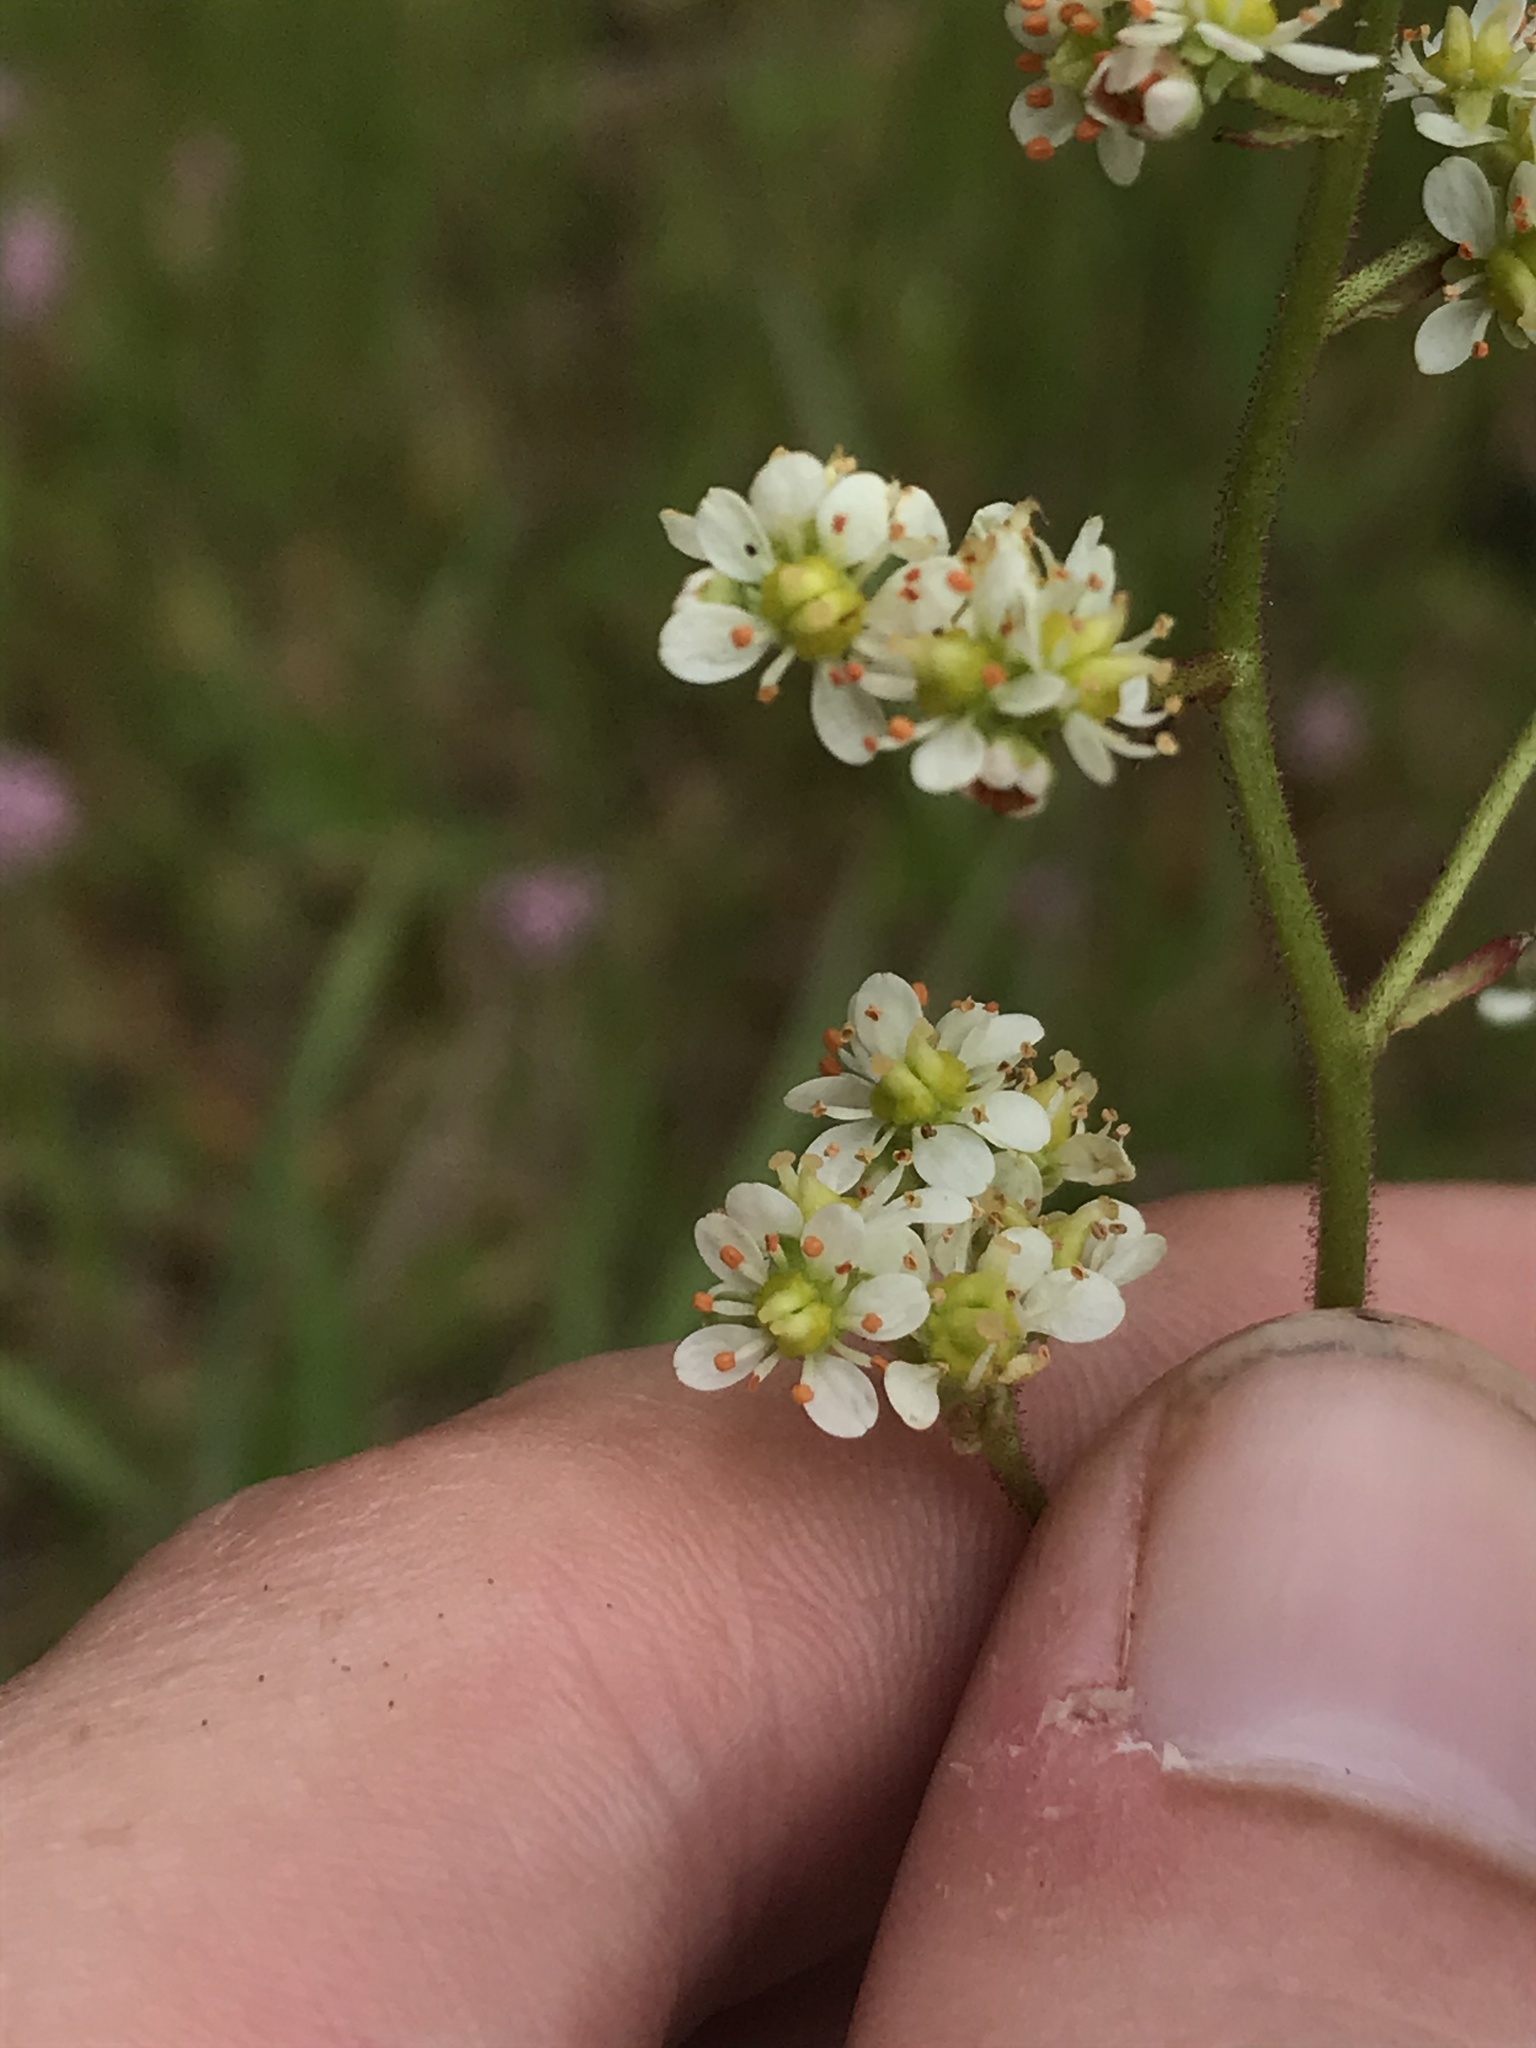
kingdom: Plantae
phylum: Tracheophyta
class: Magnoliopsida
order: Saxifragales
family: Saxifragaceae
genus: Micranthes
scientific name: Micranthes occidentalis
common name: Alberta saxifrage
